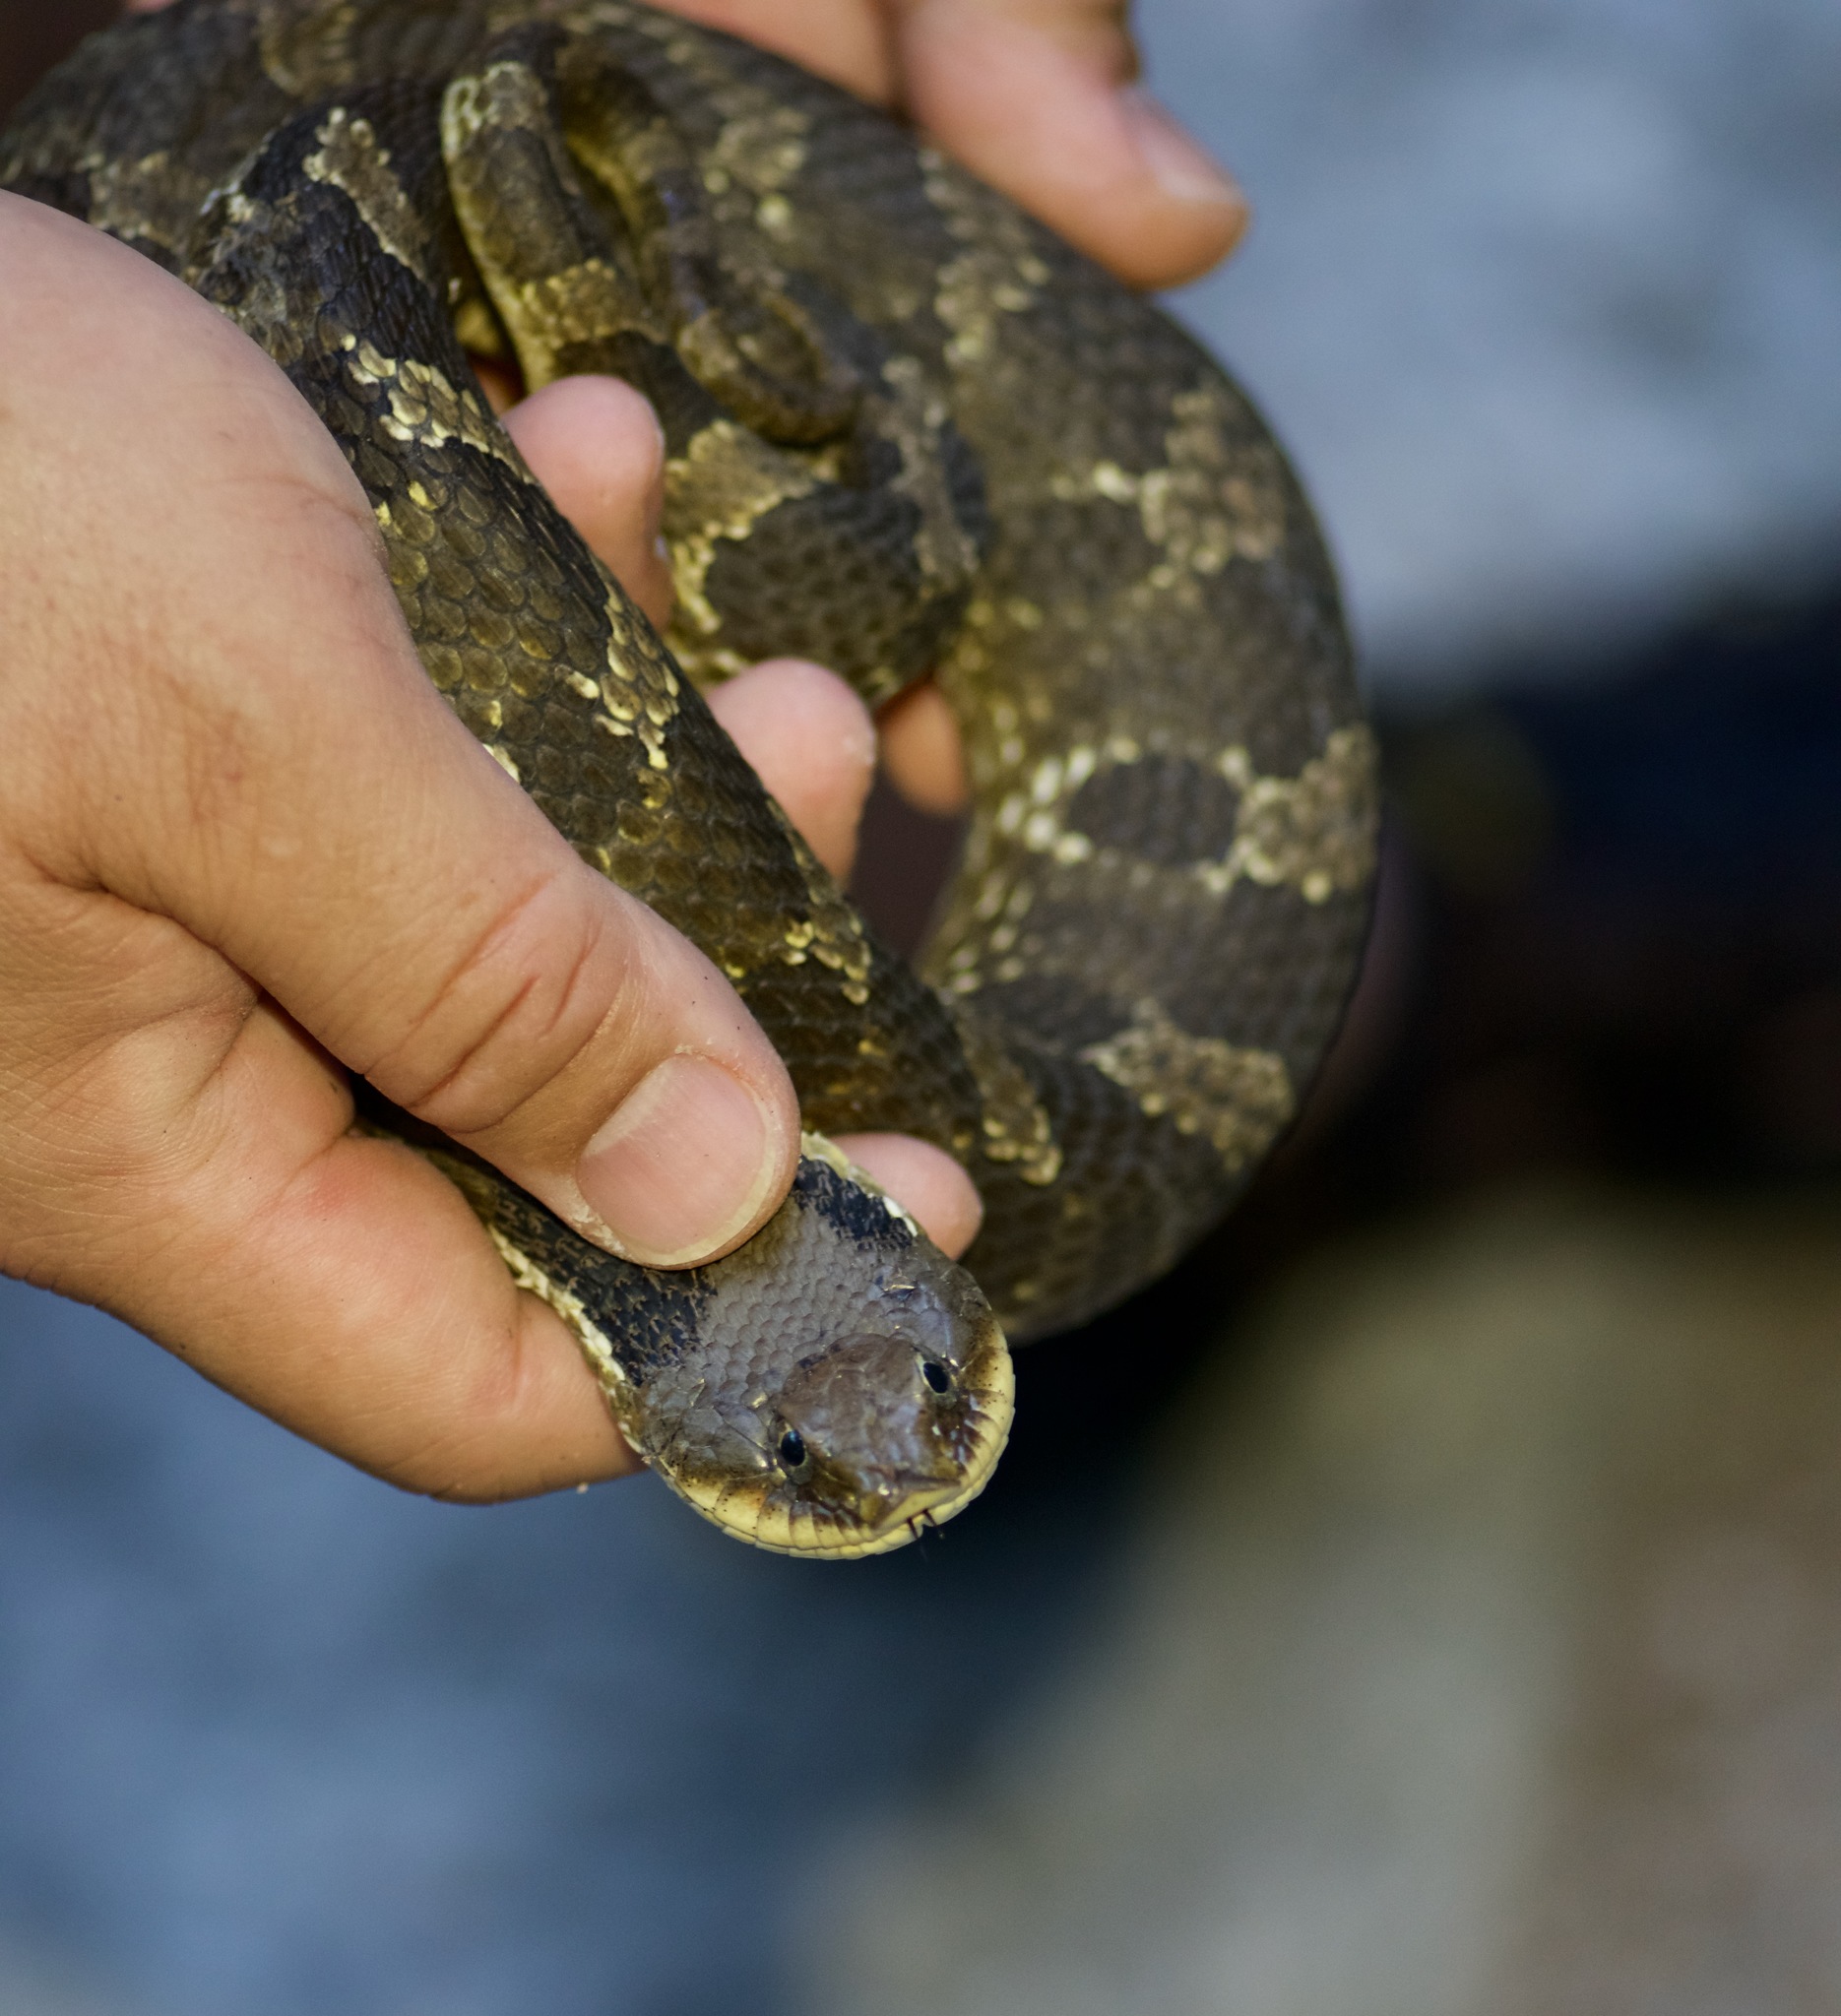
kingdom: Animalia
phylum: Chordata
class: Squamata
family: Colubridae
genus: Heterodon
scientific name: Heterodon platirhinos
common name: Eastern hognose snake
